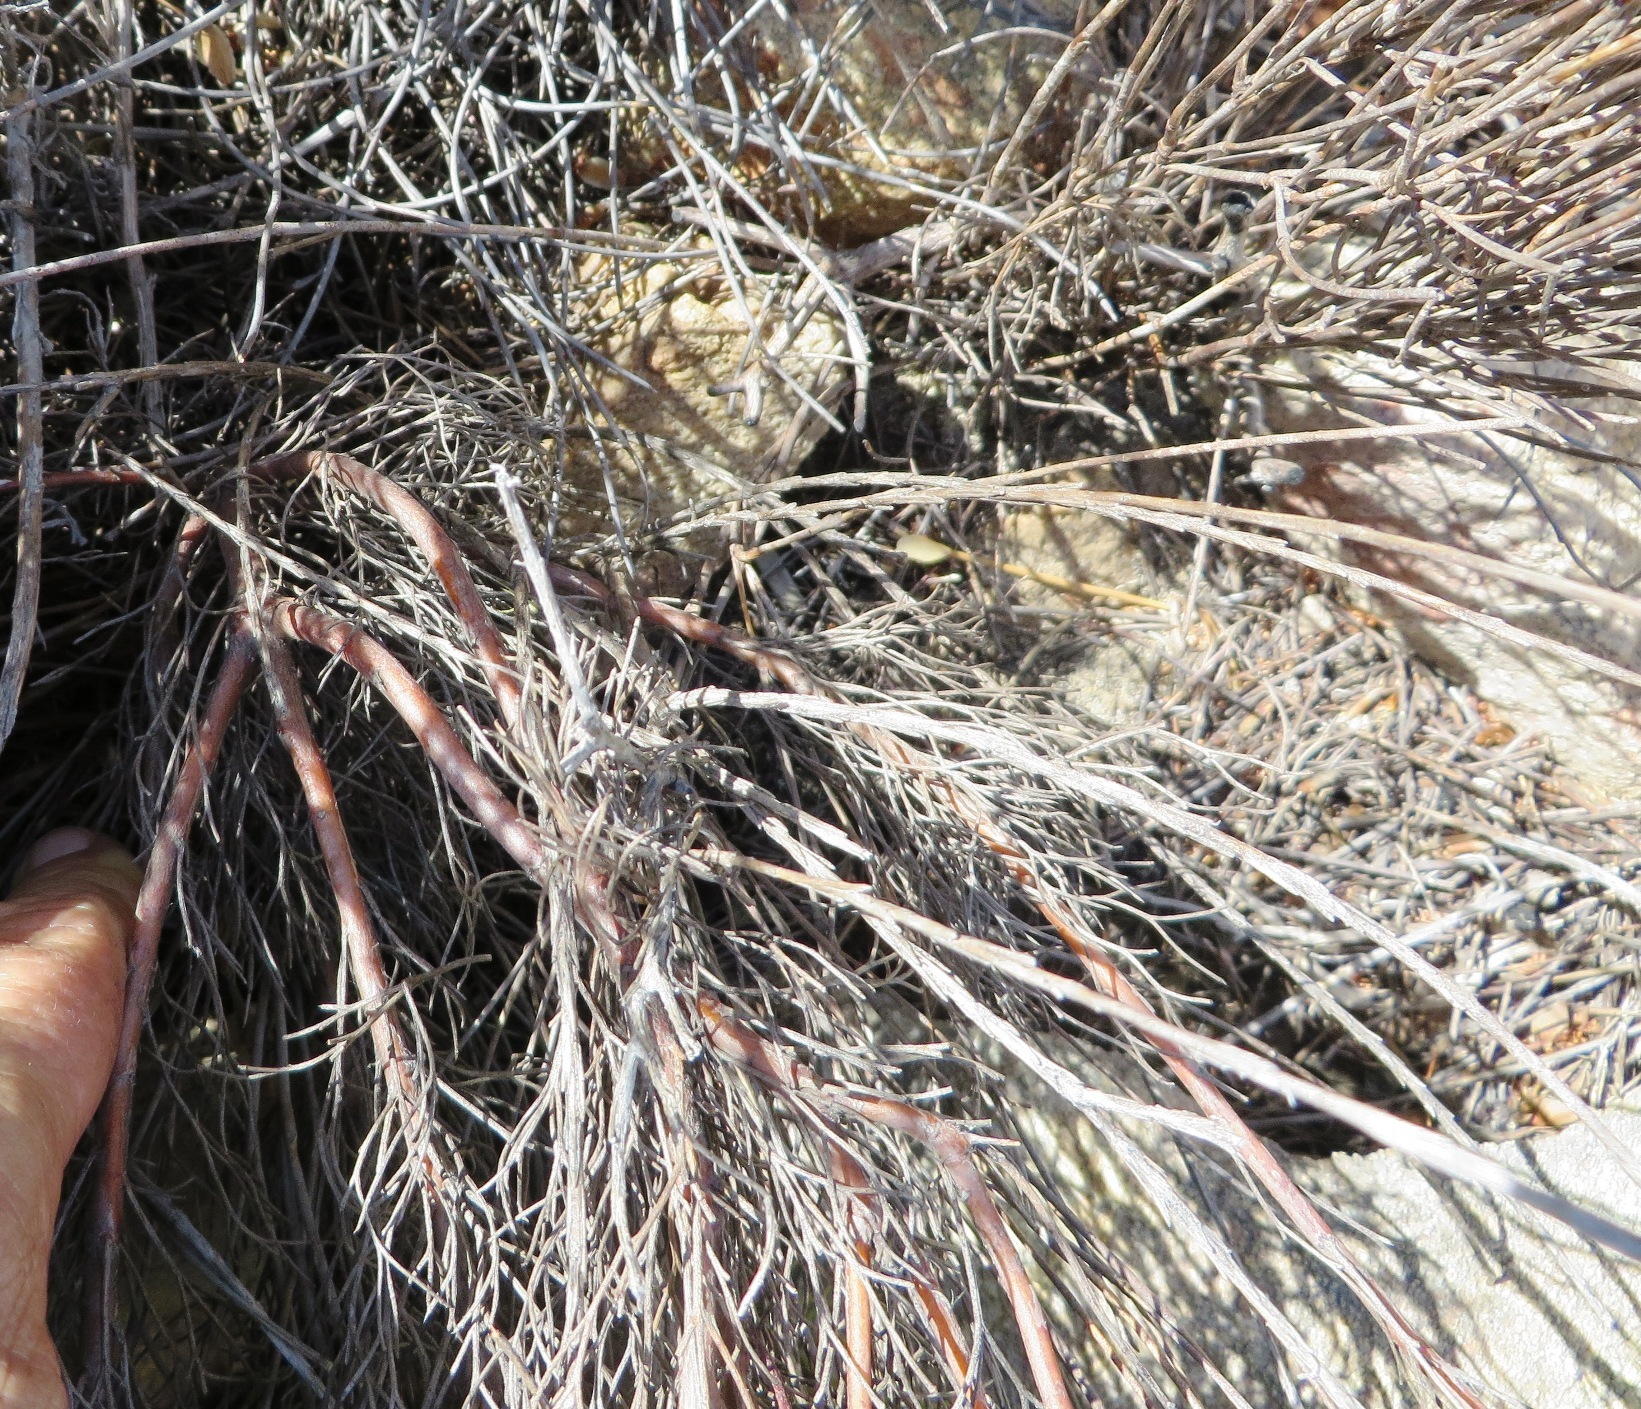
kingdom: Plantae
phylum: Tracheophyta
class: Magnoliopsida
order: Proteales
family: Proteaceae
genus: Serruria
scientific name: Serruria fasciflora
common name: Common pin spiderhead
